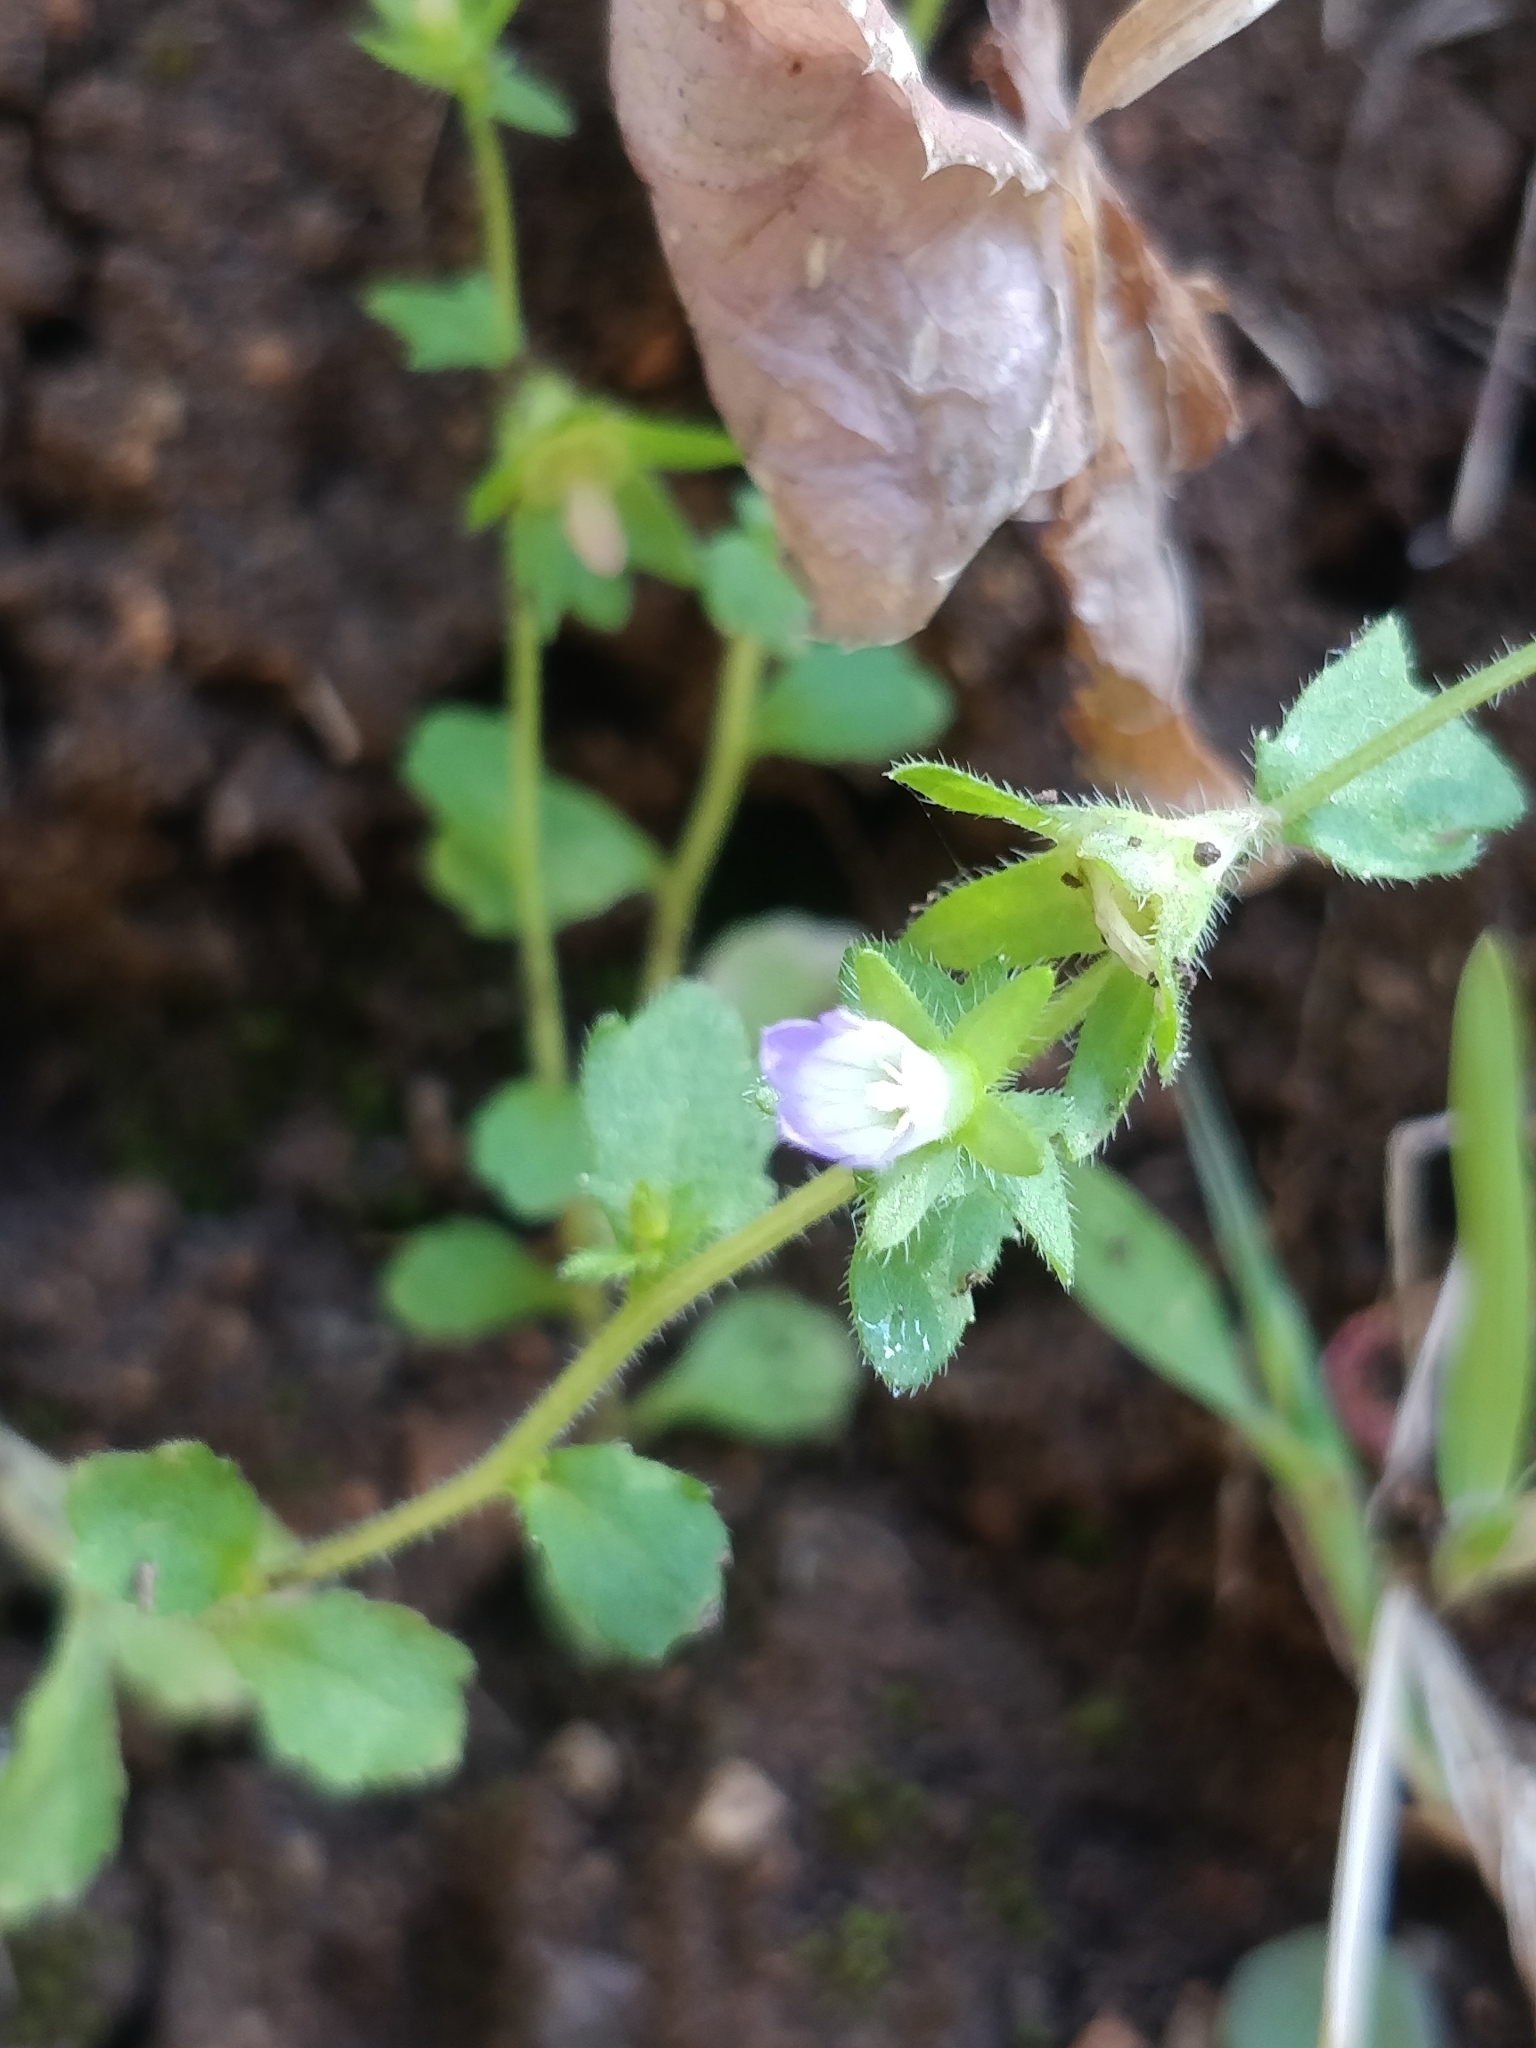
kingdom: Plantae
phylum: Tracheophyta
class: Magnoliopsida
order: Asterales
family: Campanulaceae
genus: Campanula
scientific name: Campanula erinus
